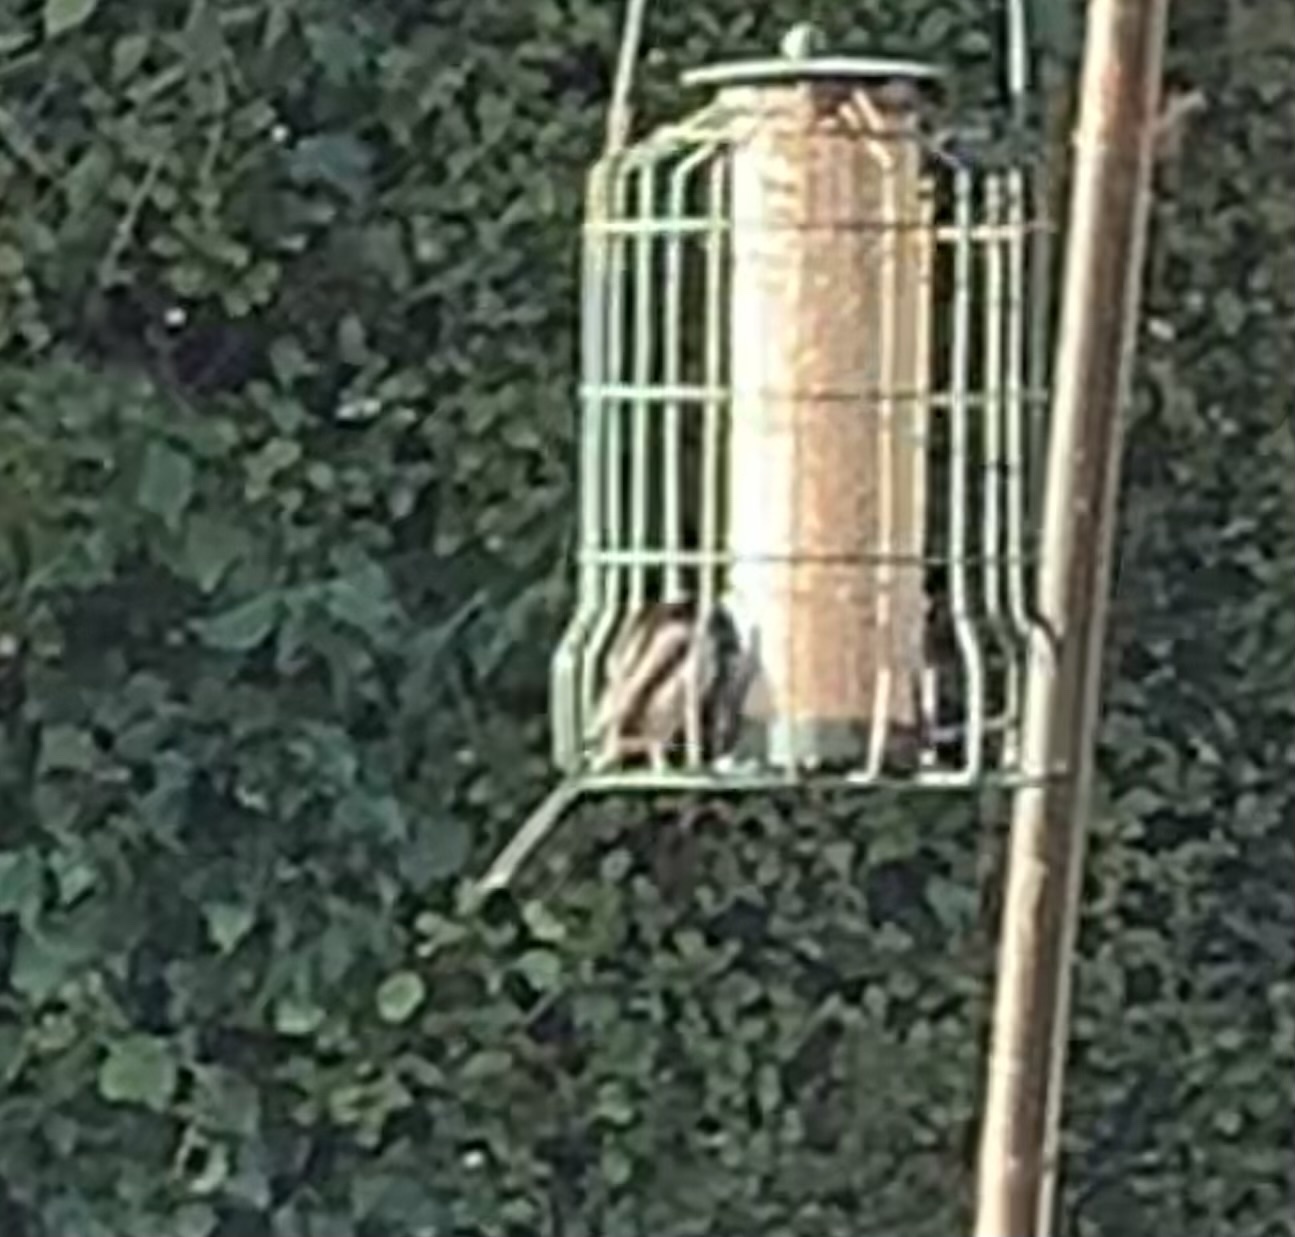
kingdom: Animalia
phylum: Chordata
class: Aves
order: Passeriformes
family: Aegithalidae
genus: Aegithalos
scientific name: Aegithalos caudatus
